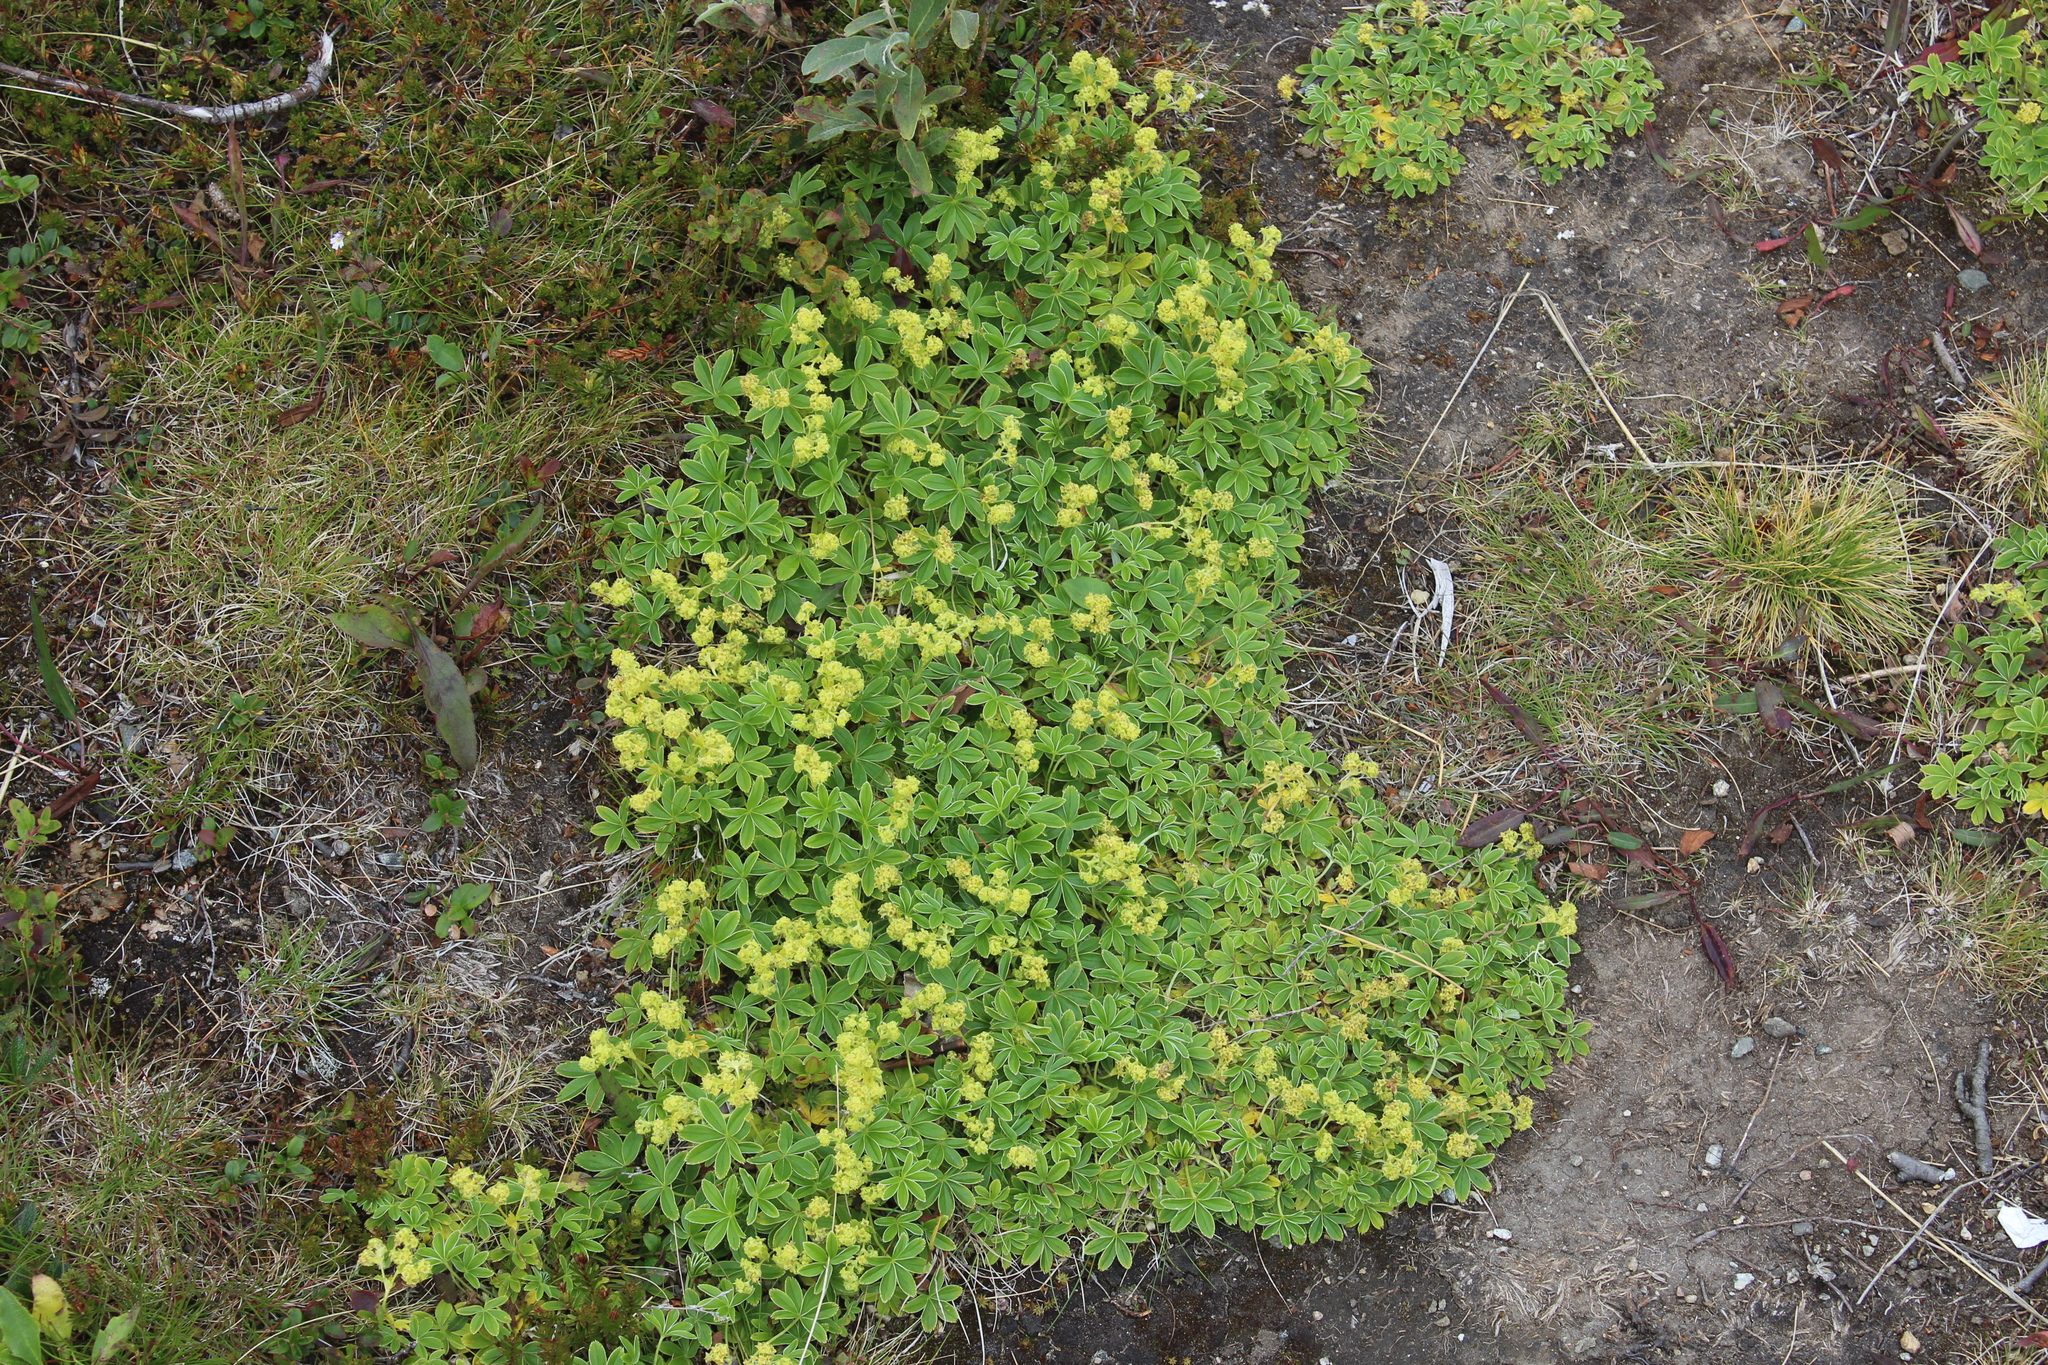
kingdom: Plantae
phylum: Tracheophyta
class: Magnoliopsida
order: Rosales
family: Rosaceae
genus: Alchemilla
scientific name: Alchemilla alpina
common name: Alpine lady's-mantle
